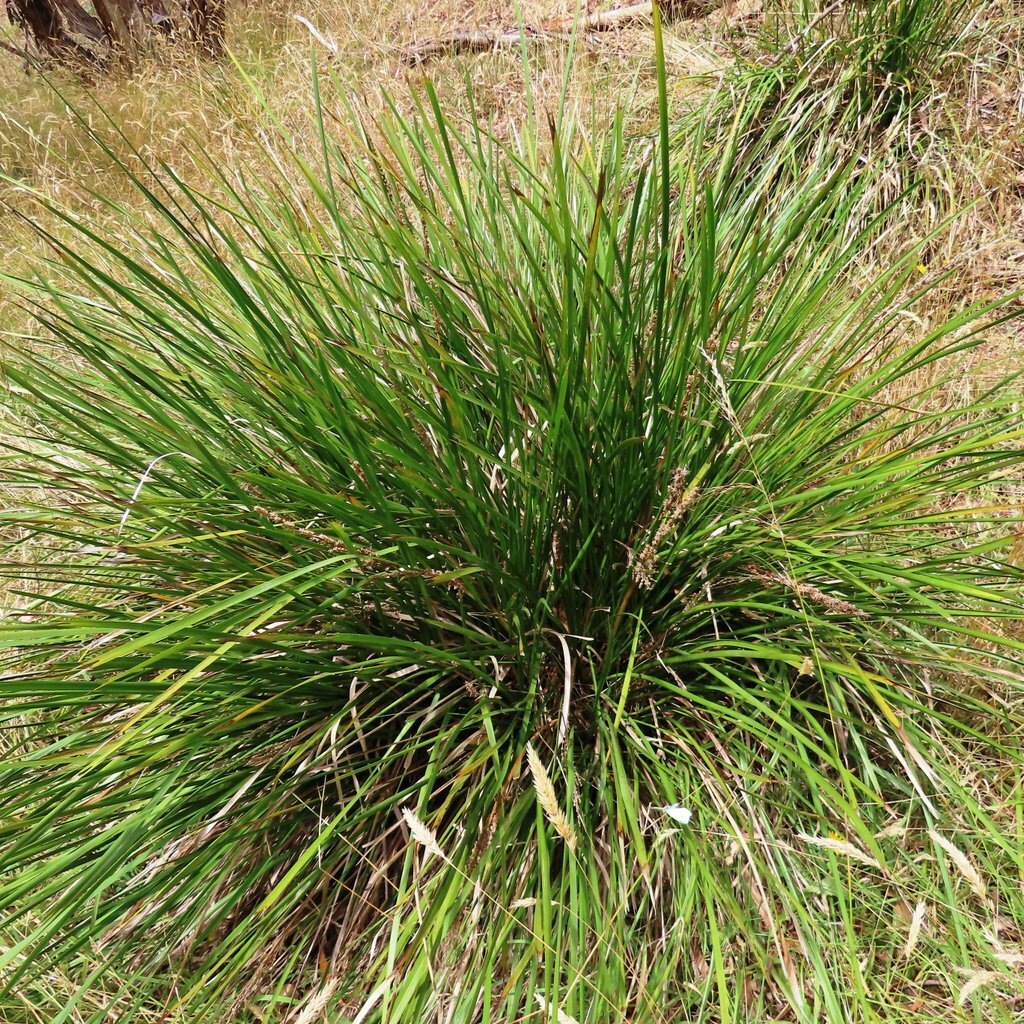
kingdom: Plantae
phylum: Tracheophyta
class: Liliopsida
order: Asparagales
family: Asparagaceae
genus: Lomandra
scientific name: Lomandra longifolia
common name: Longleaf mat-rush
